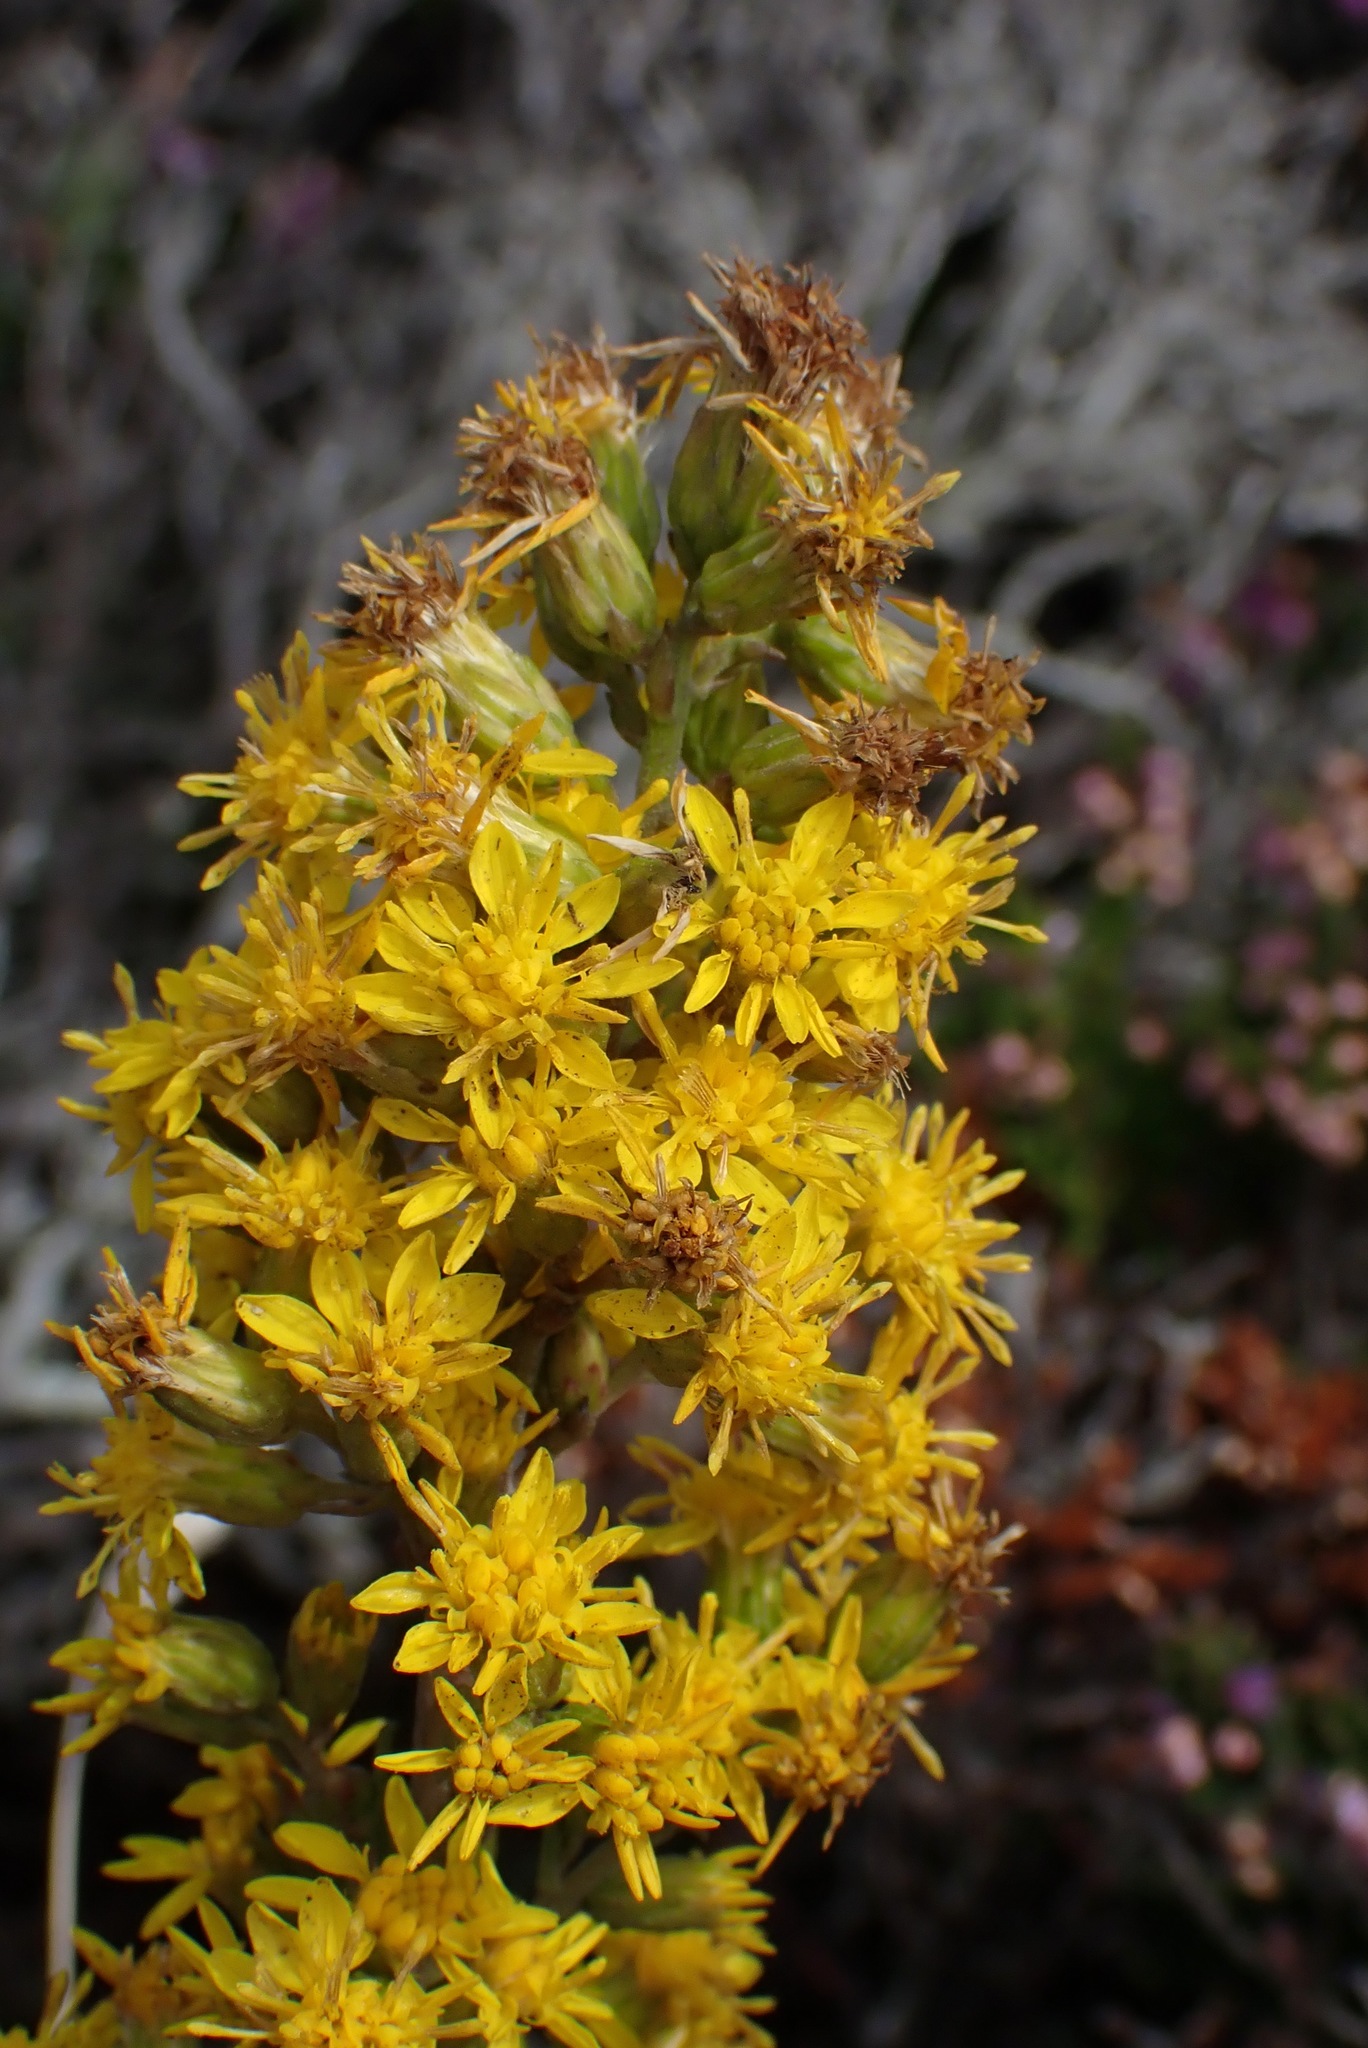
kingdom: Plantae
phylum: Tracheophyta
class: Magnoliopsida
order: Asterales
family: Asteraceae
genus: Solidago
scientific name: Solidago virgaurea
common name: Goldenrod
